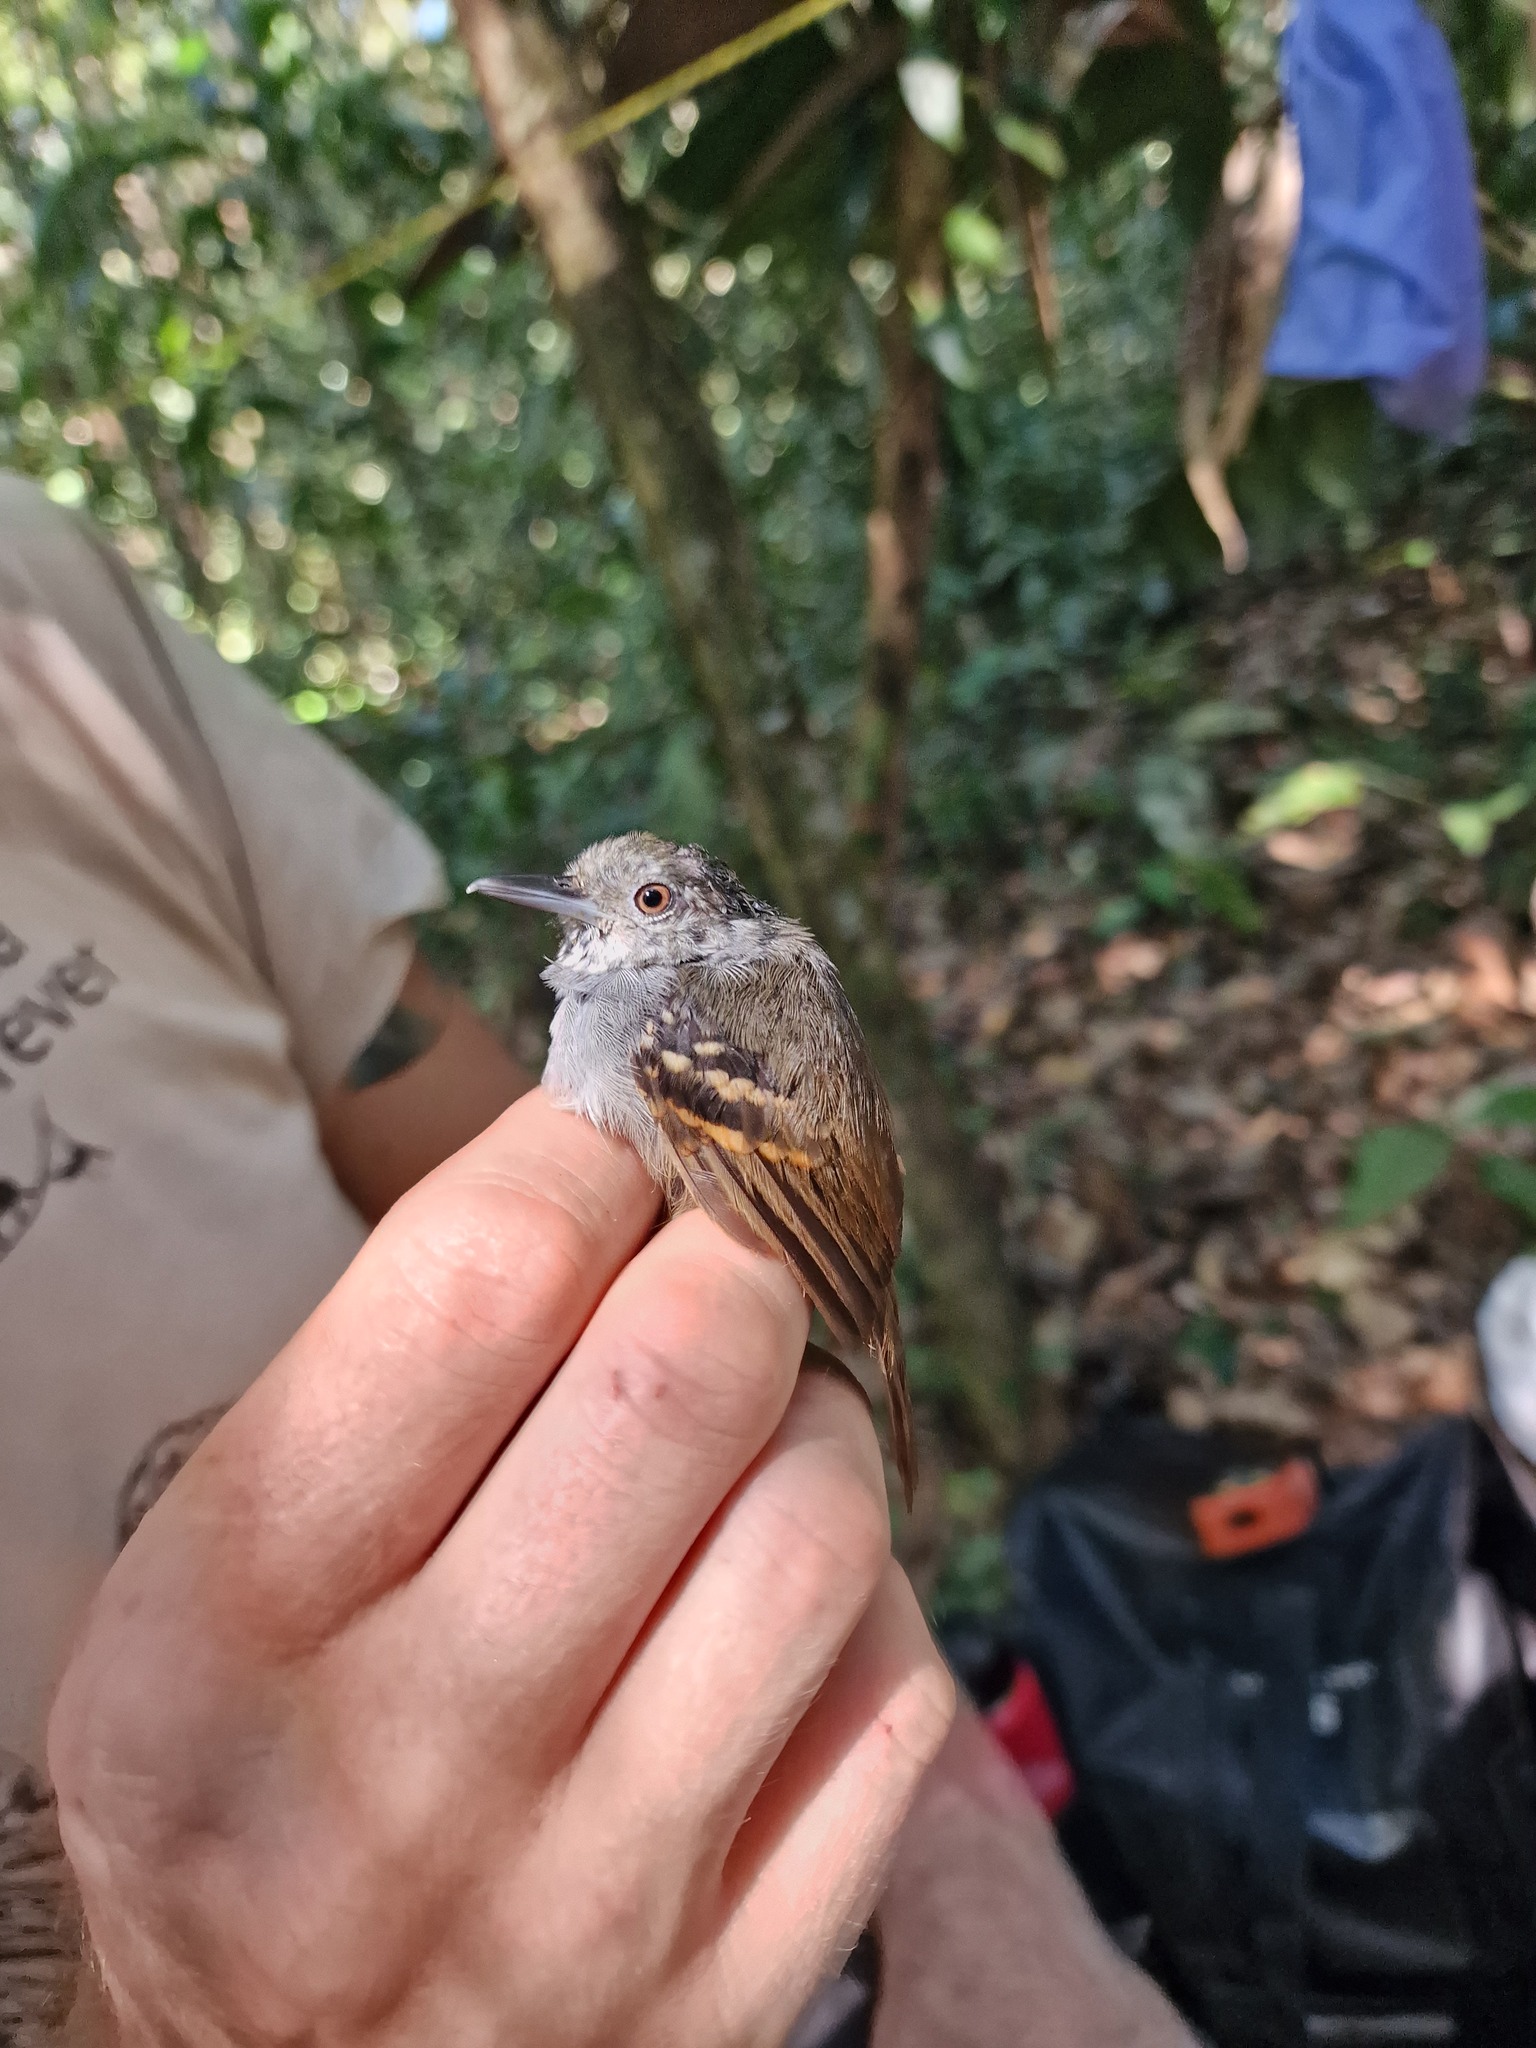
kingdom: Animalia
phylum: Chordata
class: Aves
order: Passeriformes
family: Thamnophilidae
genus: Epinecrophylla
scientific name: Epinecrophylla leucophthalma
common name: White-eyed antwren
